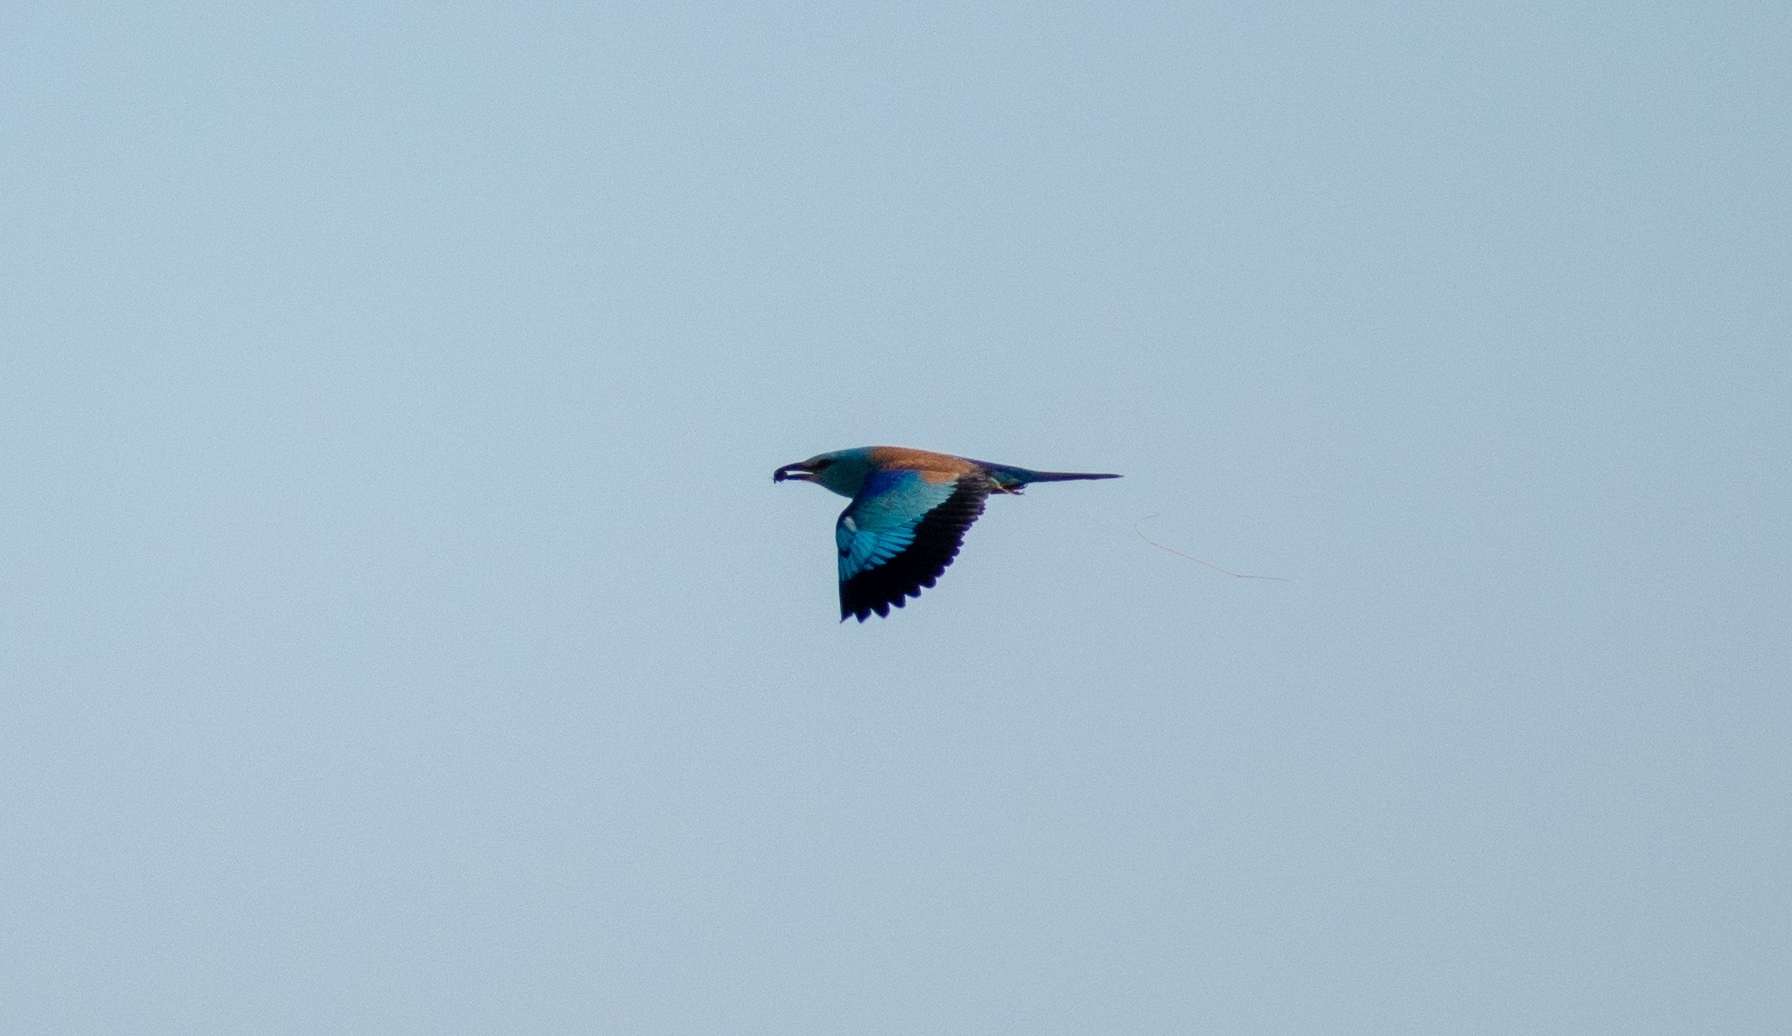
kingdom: Animalia
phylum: Chordata
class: Aves
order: Coraciiformes
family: Coraciidae
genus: Coracias
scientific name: Coracias garrulus
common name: European roller
